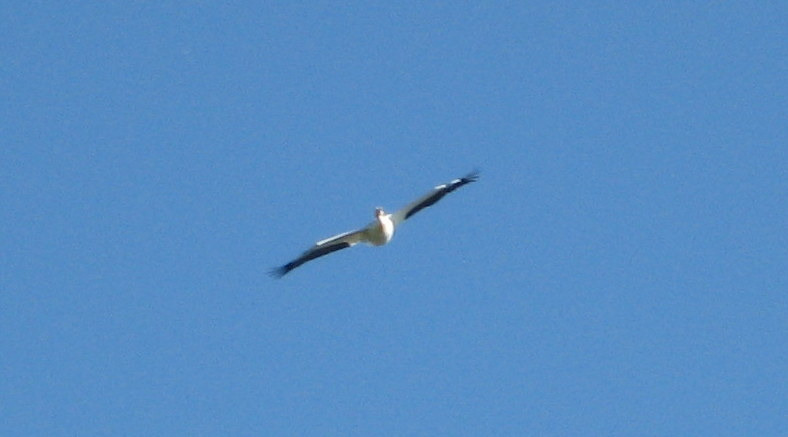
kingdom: Animalia
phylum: Chordata
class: Aves
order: Pelecaniformes
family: Pelecanidae
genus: Pelecanus
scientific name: Pelecanus erythrorhynchos
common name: American white pelican
